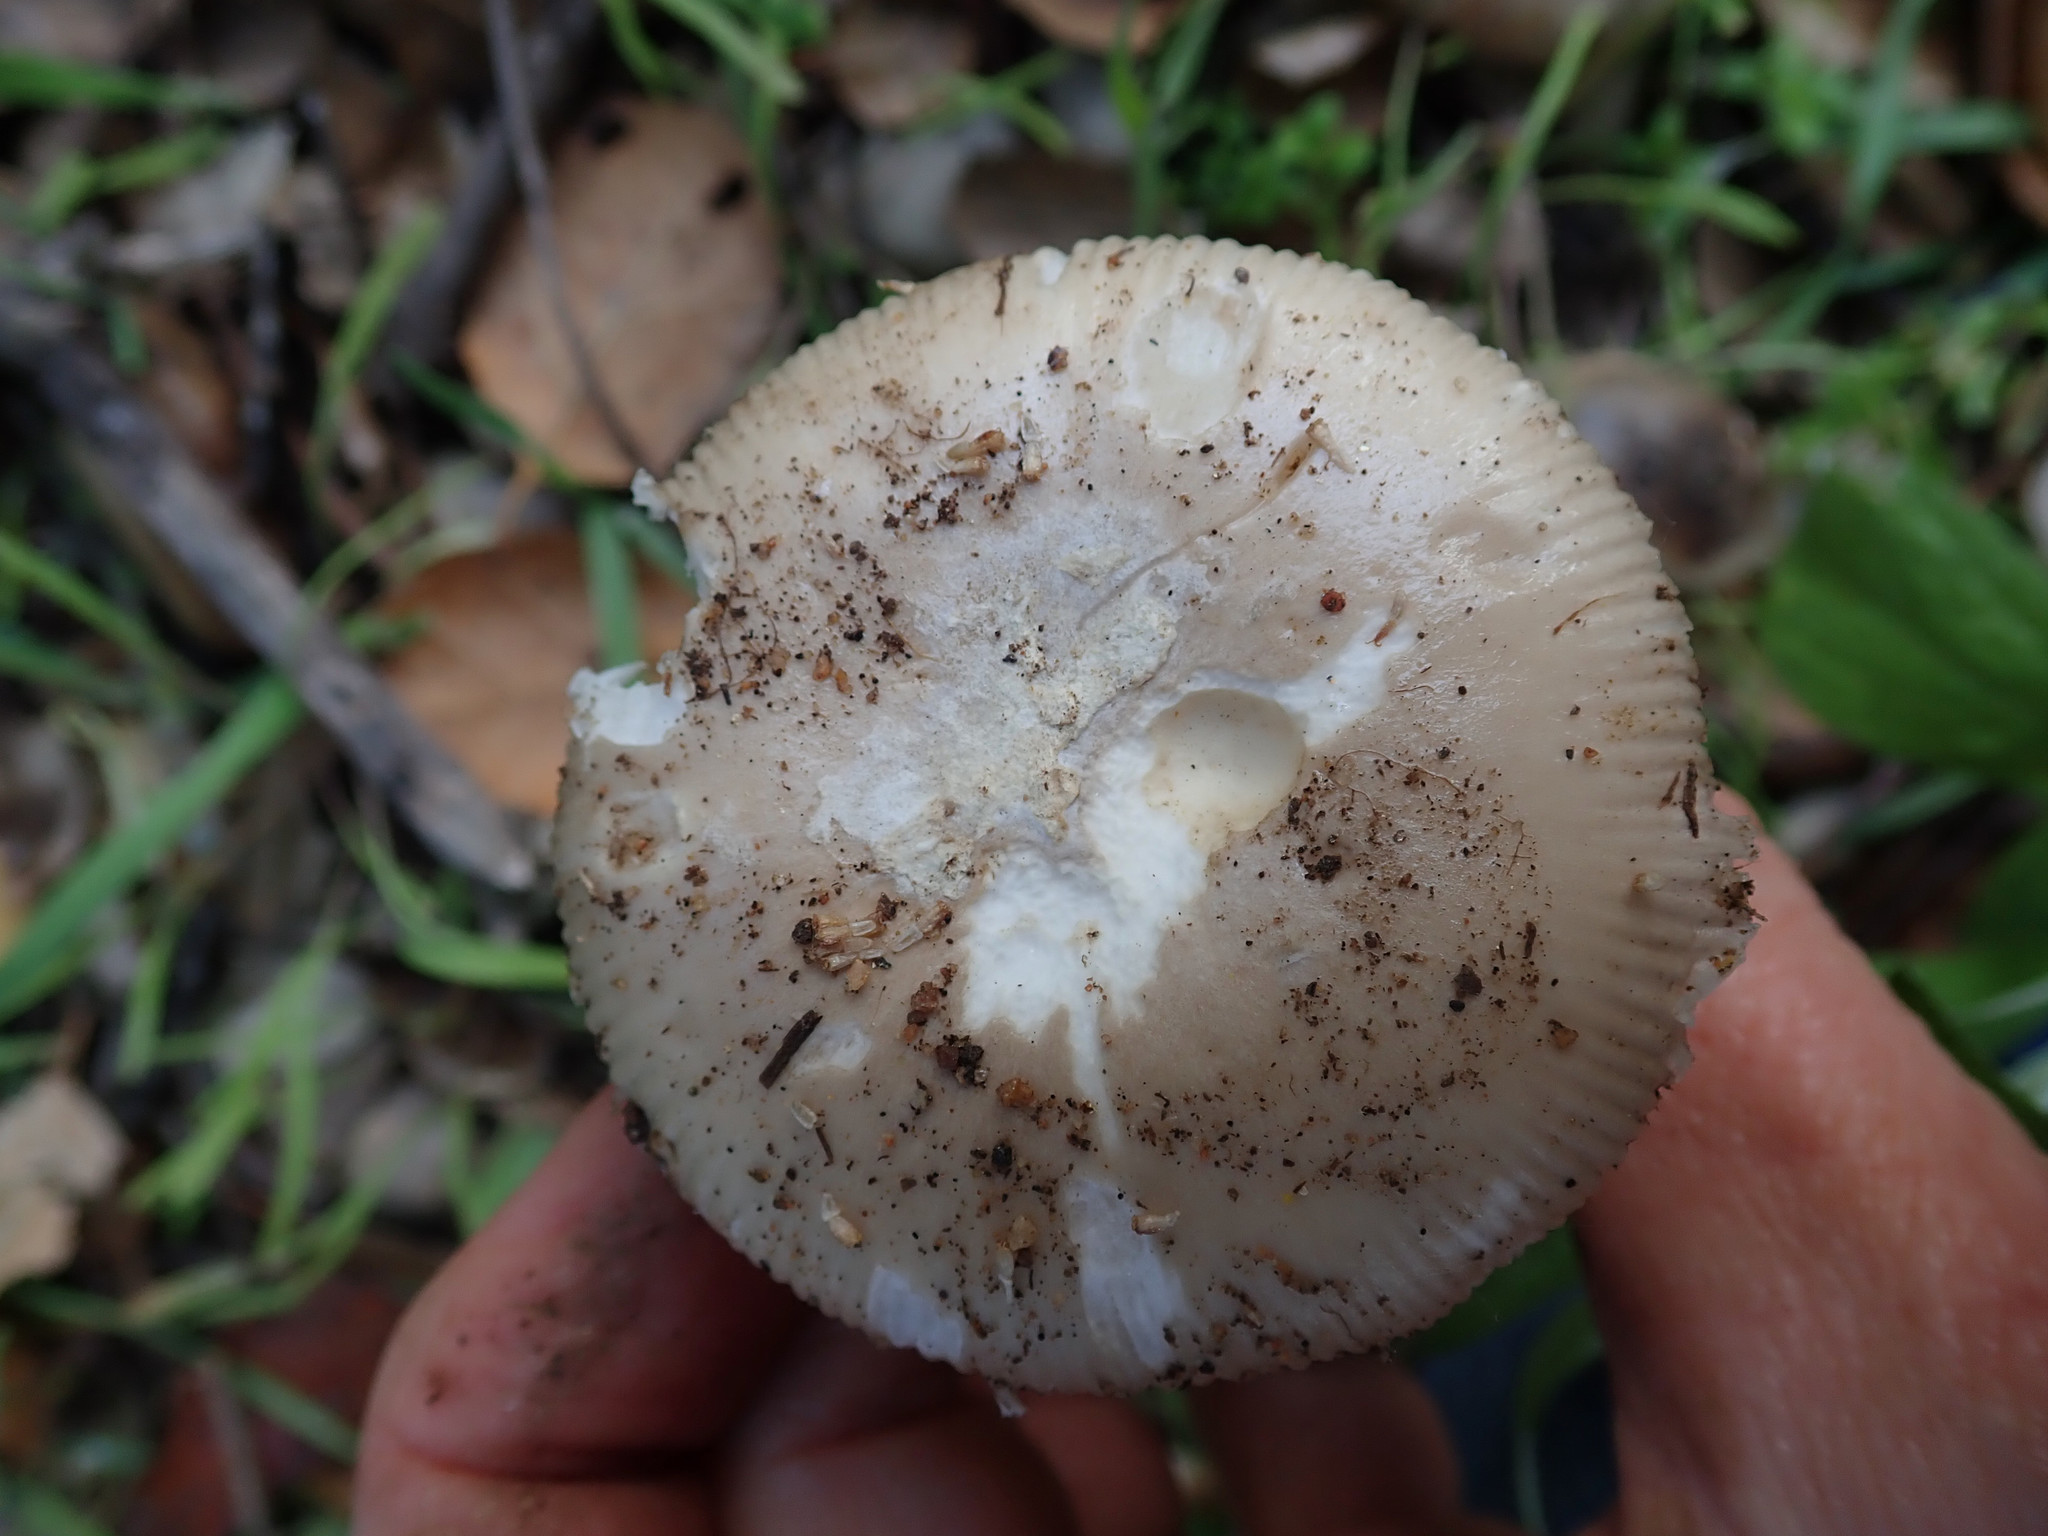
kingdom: Fungi
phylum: Basidiomycota
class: Agaricomycetes
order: Agaricales
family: Amanitaceae
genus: Amanita
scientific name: Amanita calyptratoides
